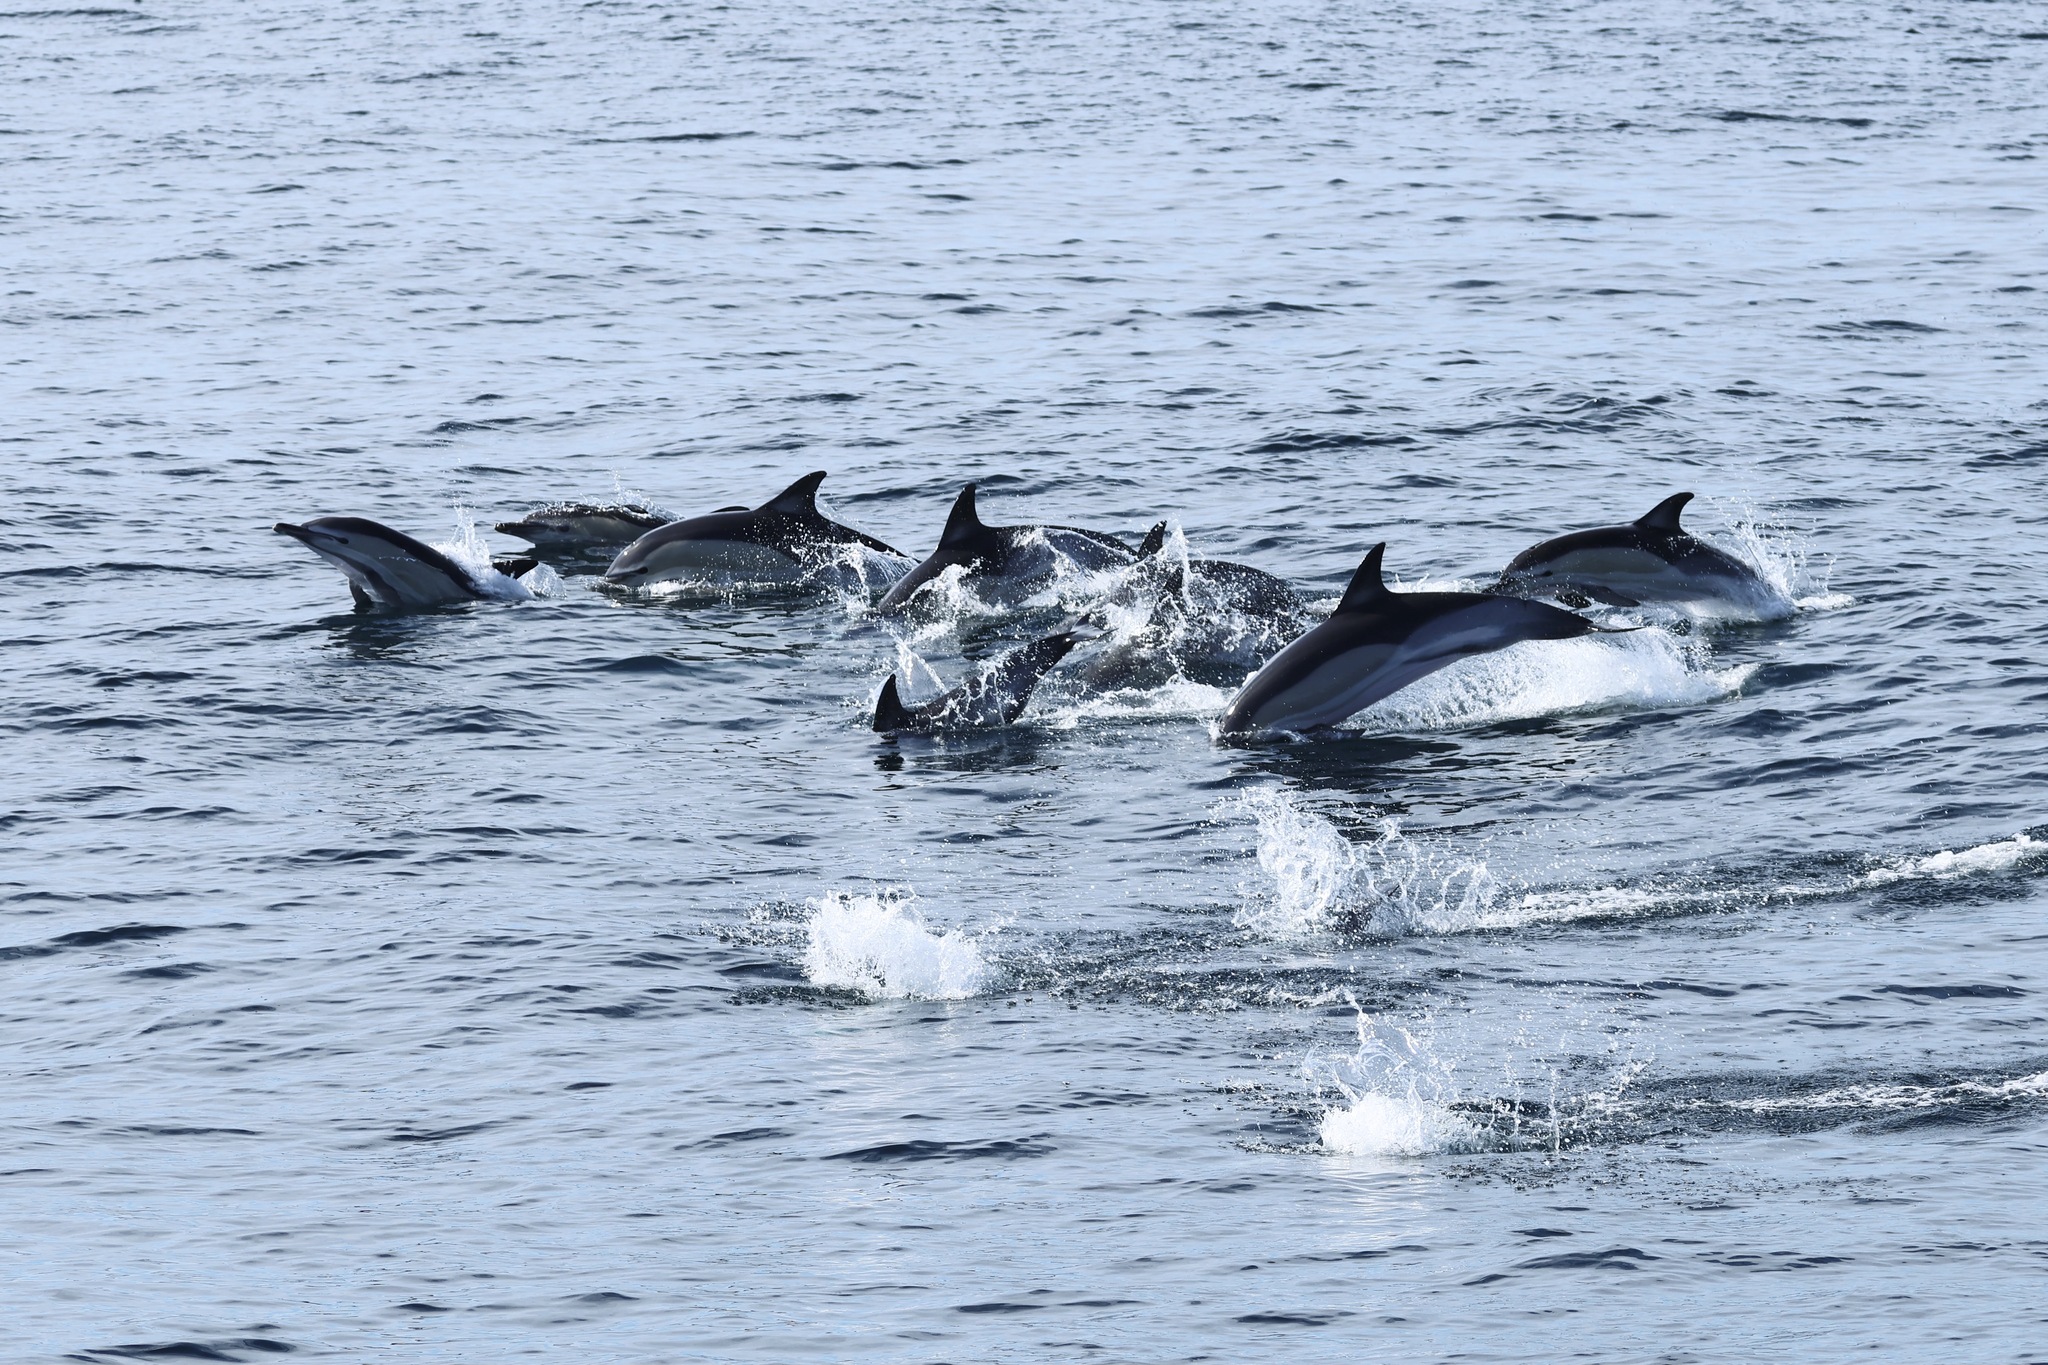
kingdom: Animalia
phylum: Chordata
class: Mammalia
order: Cetacea
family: Delphinidae
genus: Delphinus
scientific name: Delphinus delphis
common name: Common dolphin
